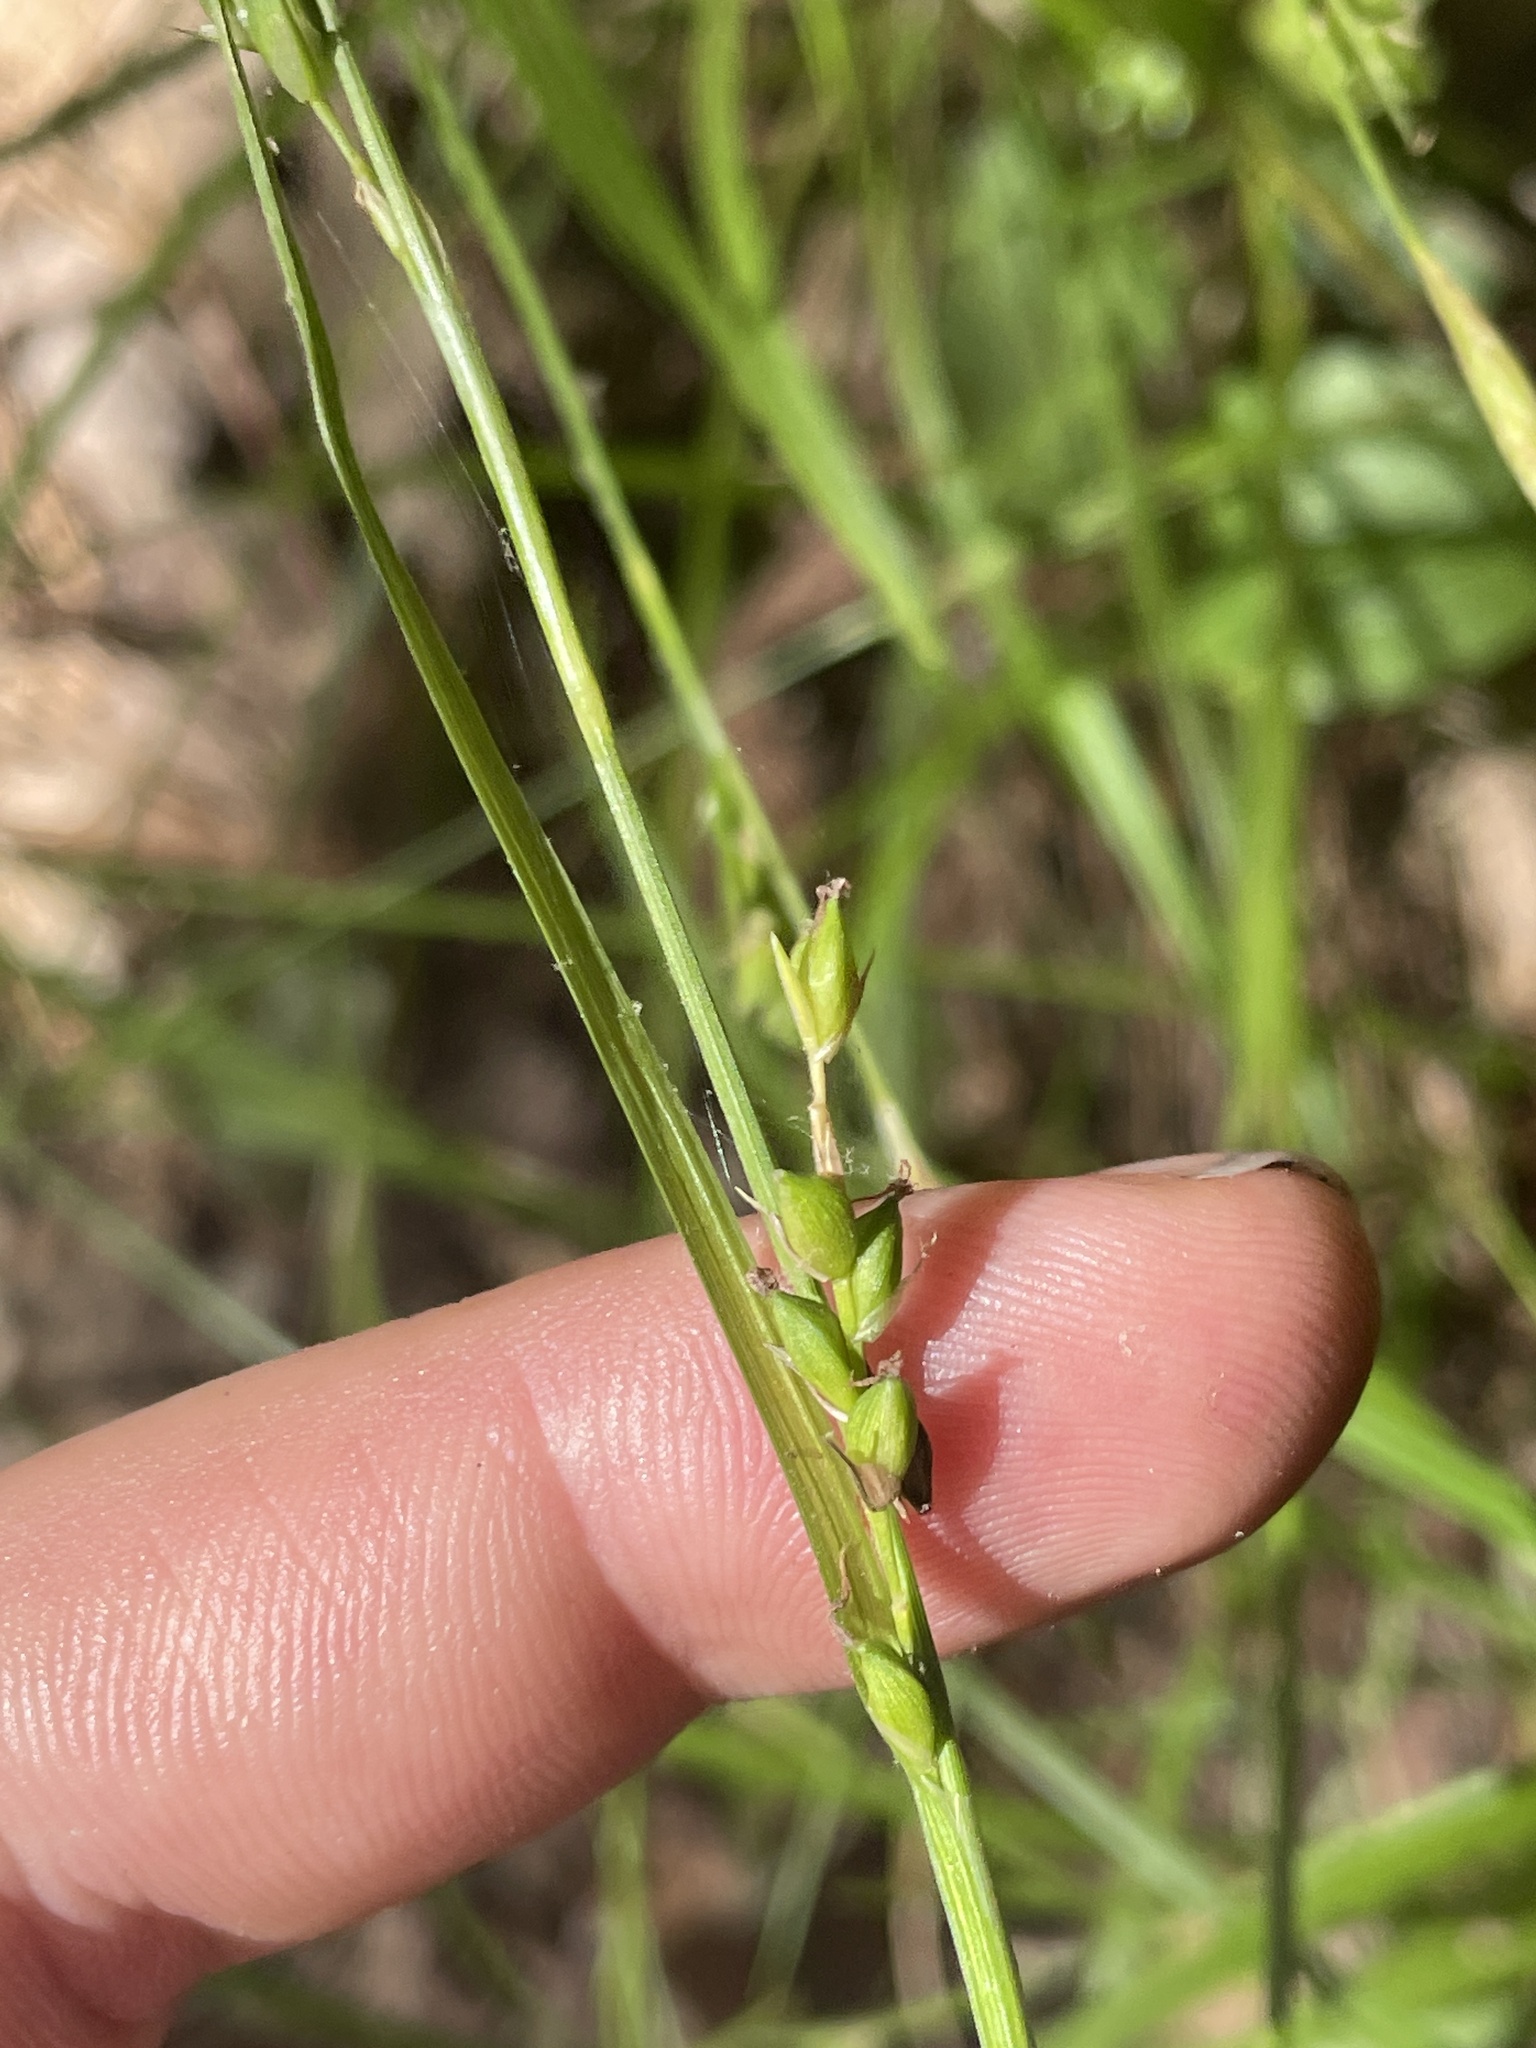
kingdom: Plantae
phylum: Tracheophyta
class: Liliopsida
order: Poales
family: Cyperaceae
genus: Carex
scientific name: Carex impressinervia
